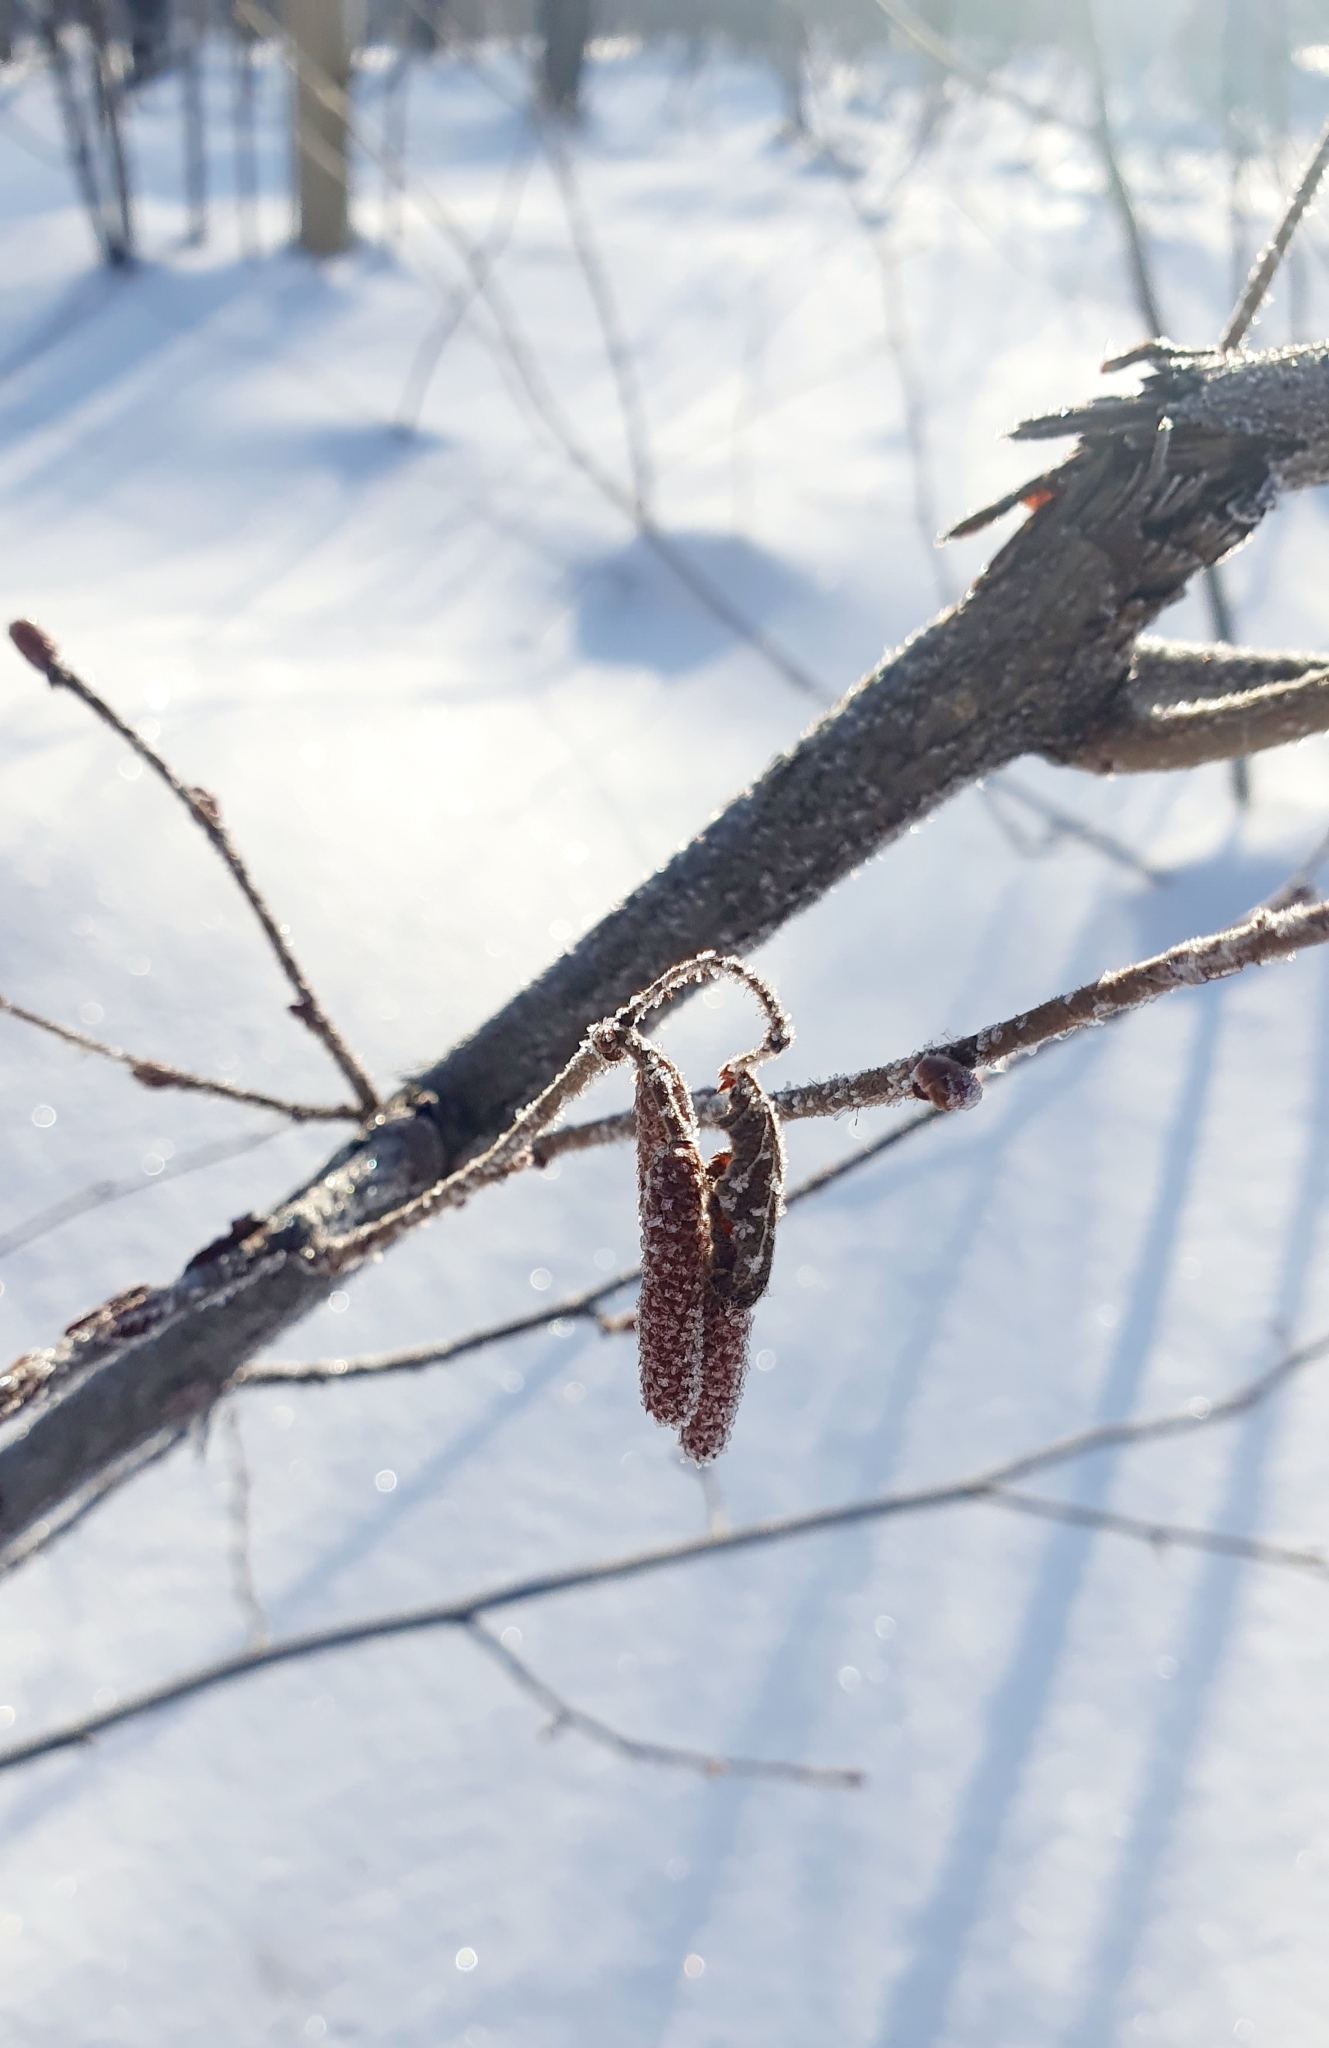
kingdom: Plantae
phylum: Tracheophyta
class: Magnoliopsida
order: Fagales
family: Betulaceae
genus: Corylus
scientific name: Corylus avellana
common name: European hazel
